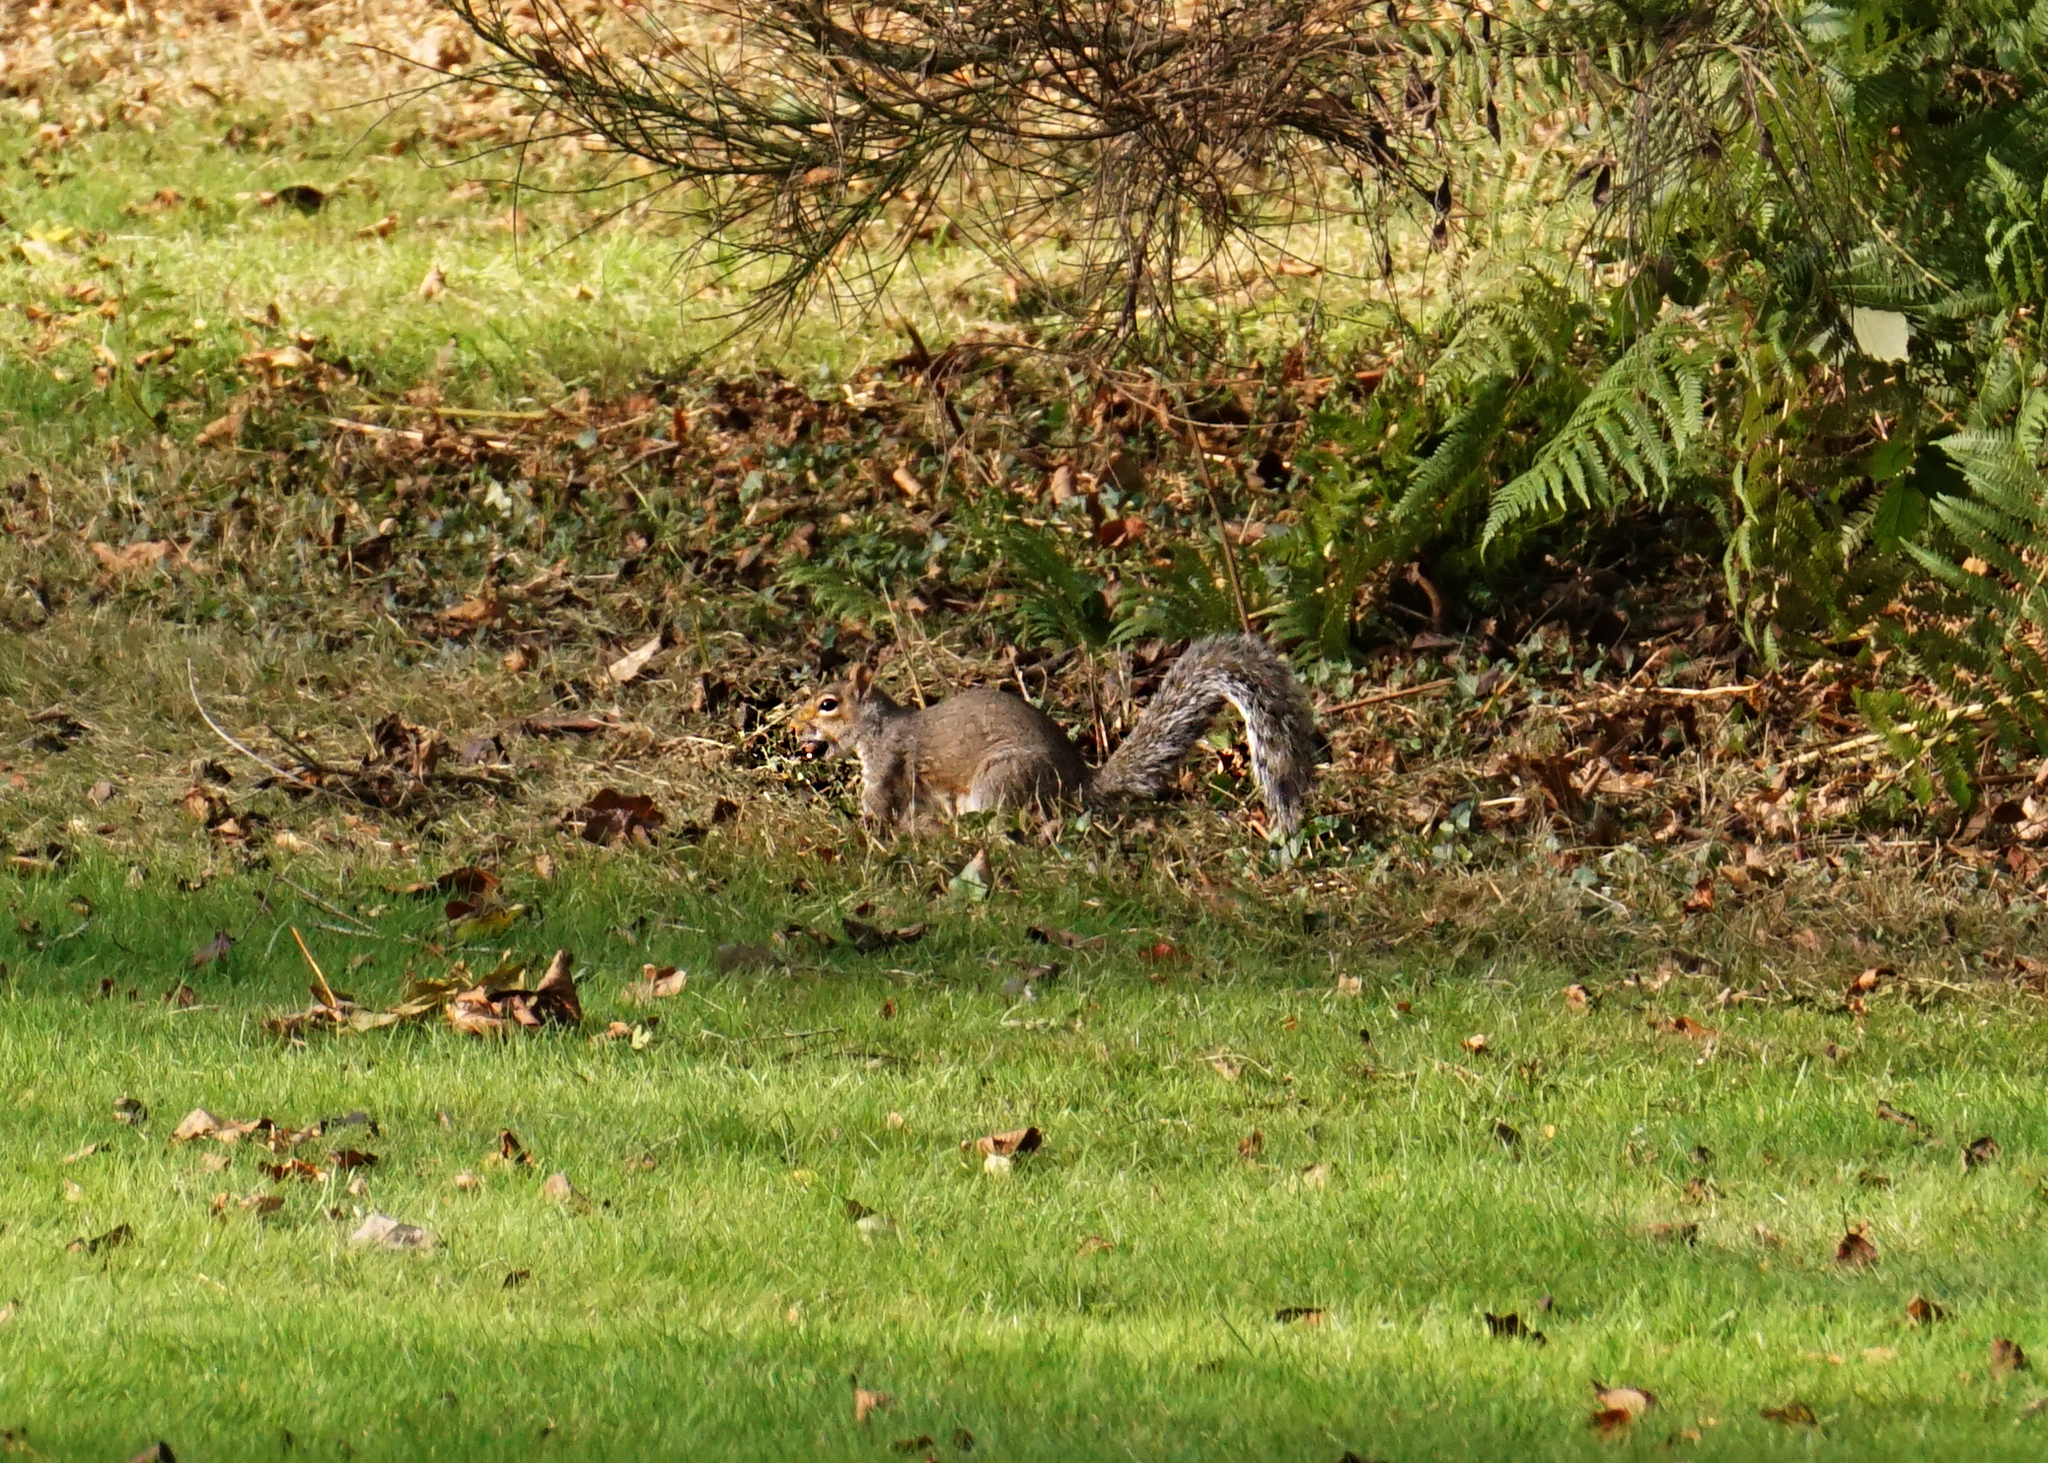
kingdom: Animalia
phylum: Chordata
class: Mammalia
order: Rodentia
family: Sciuridae
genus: Sciurus
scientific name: Sciurus carolinensis
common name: Eastern gray squirrel
